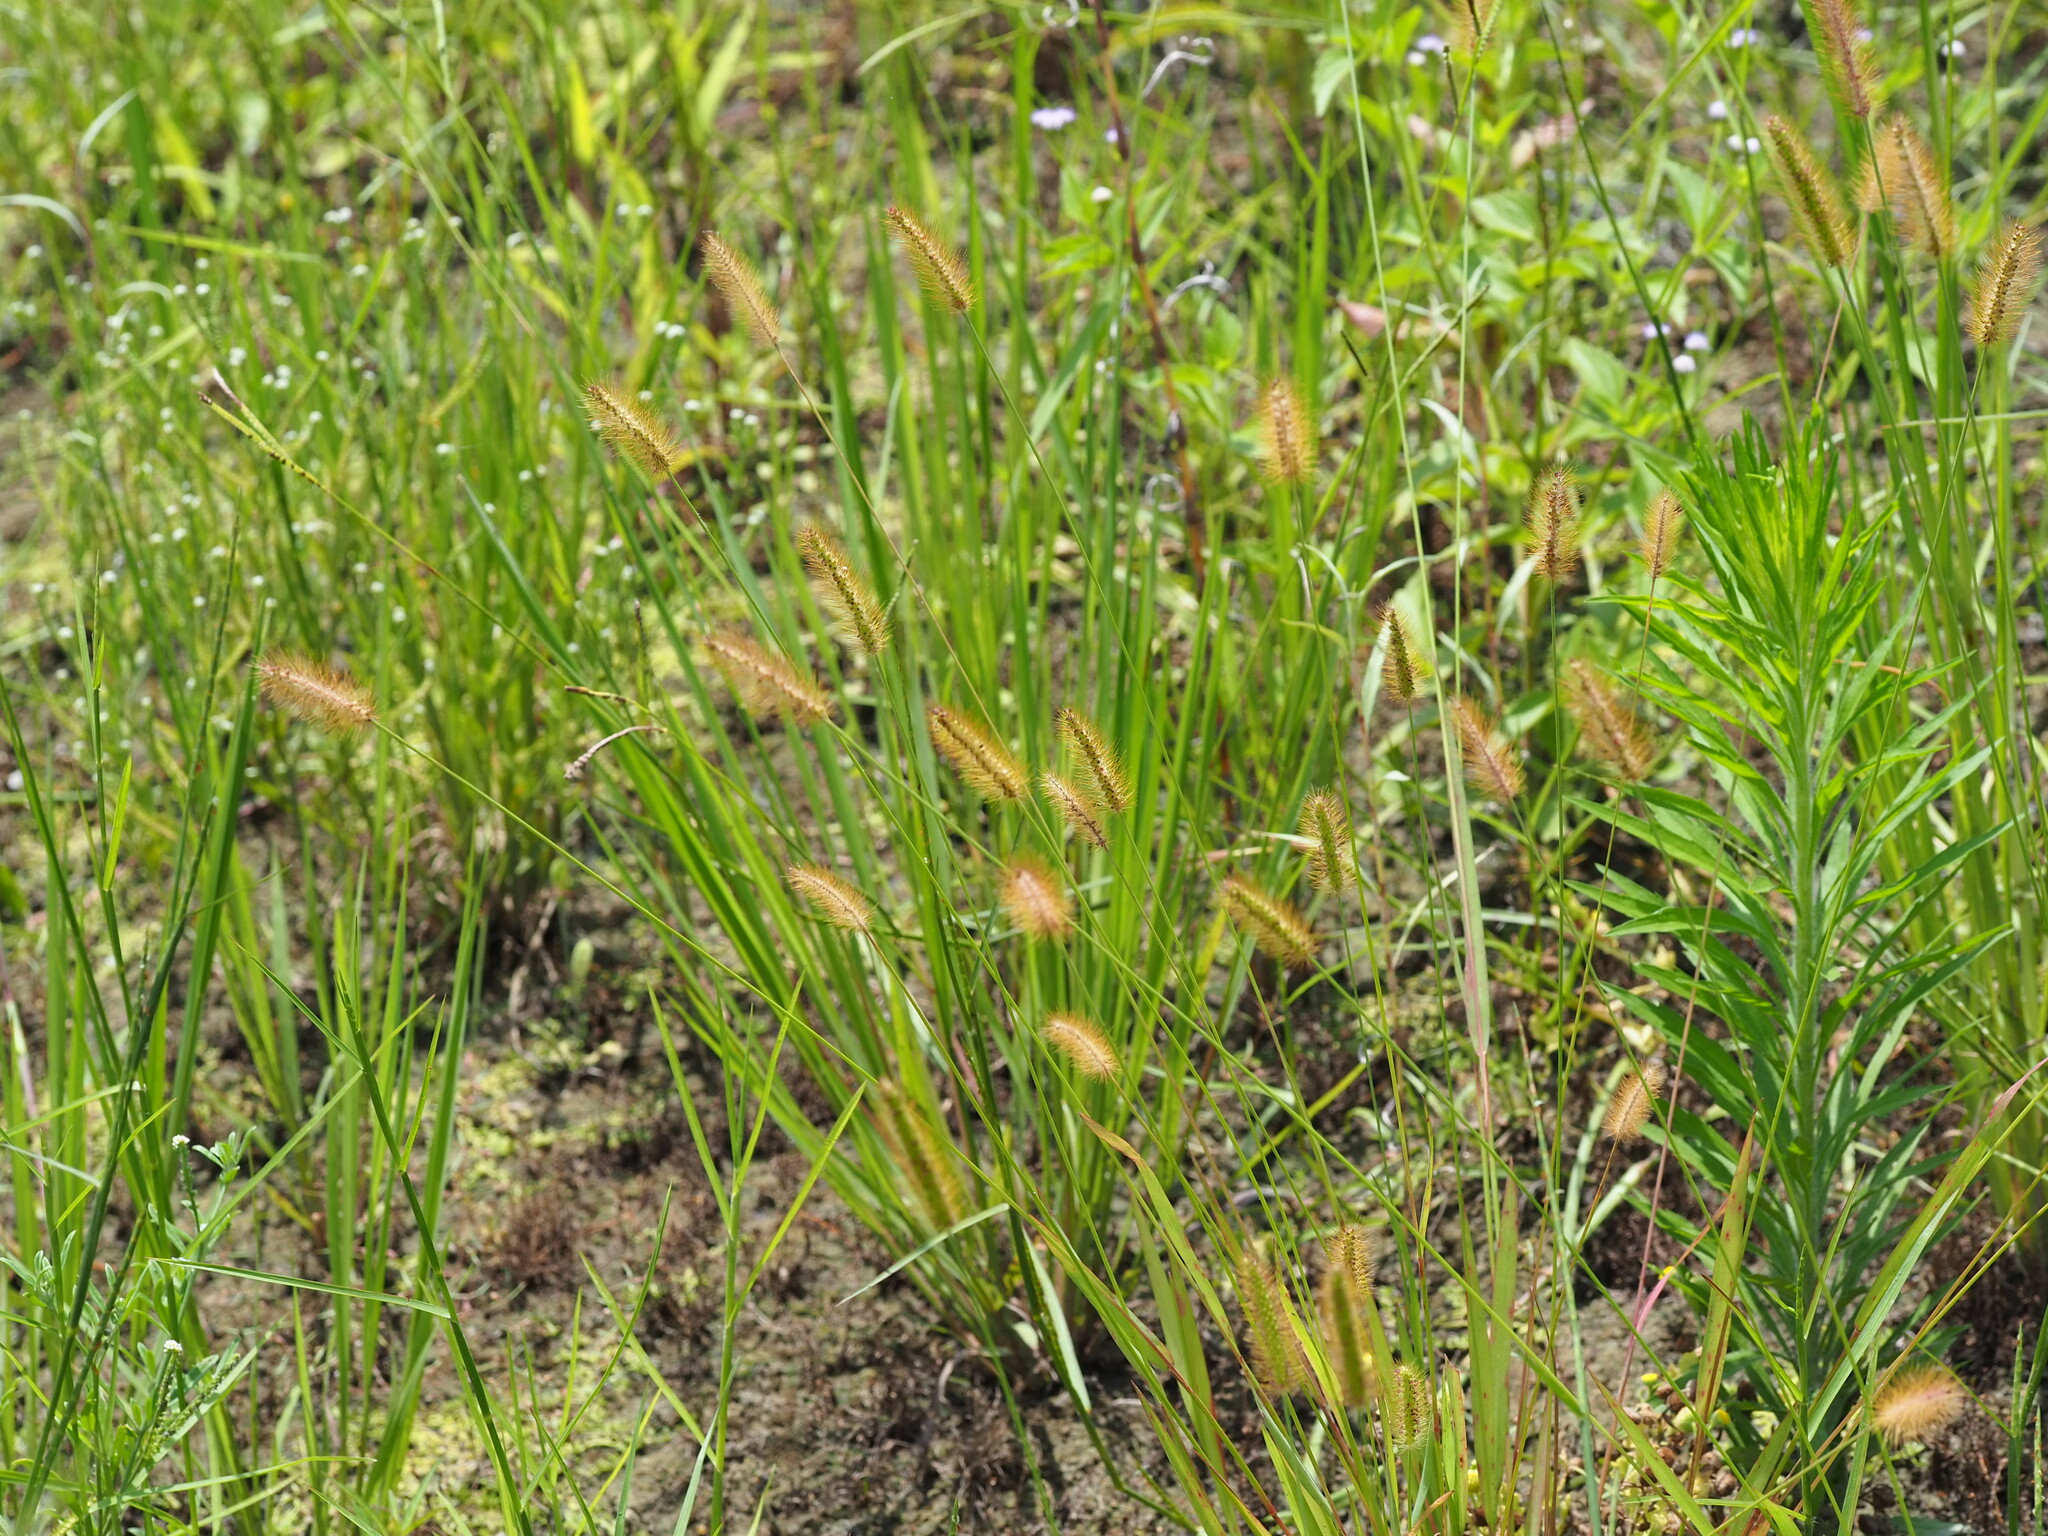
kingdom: Plantae
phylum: Tracheophyta
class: Liliopsida
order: Poales
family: Poaceae
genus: Setaria
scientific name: Setaria parviflora
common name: Knotroot bristle-grass
